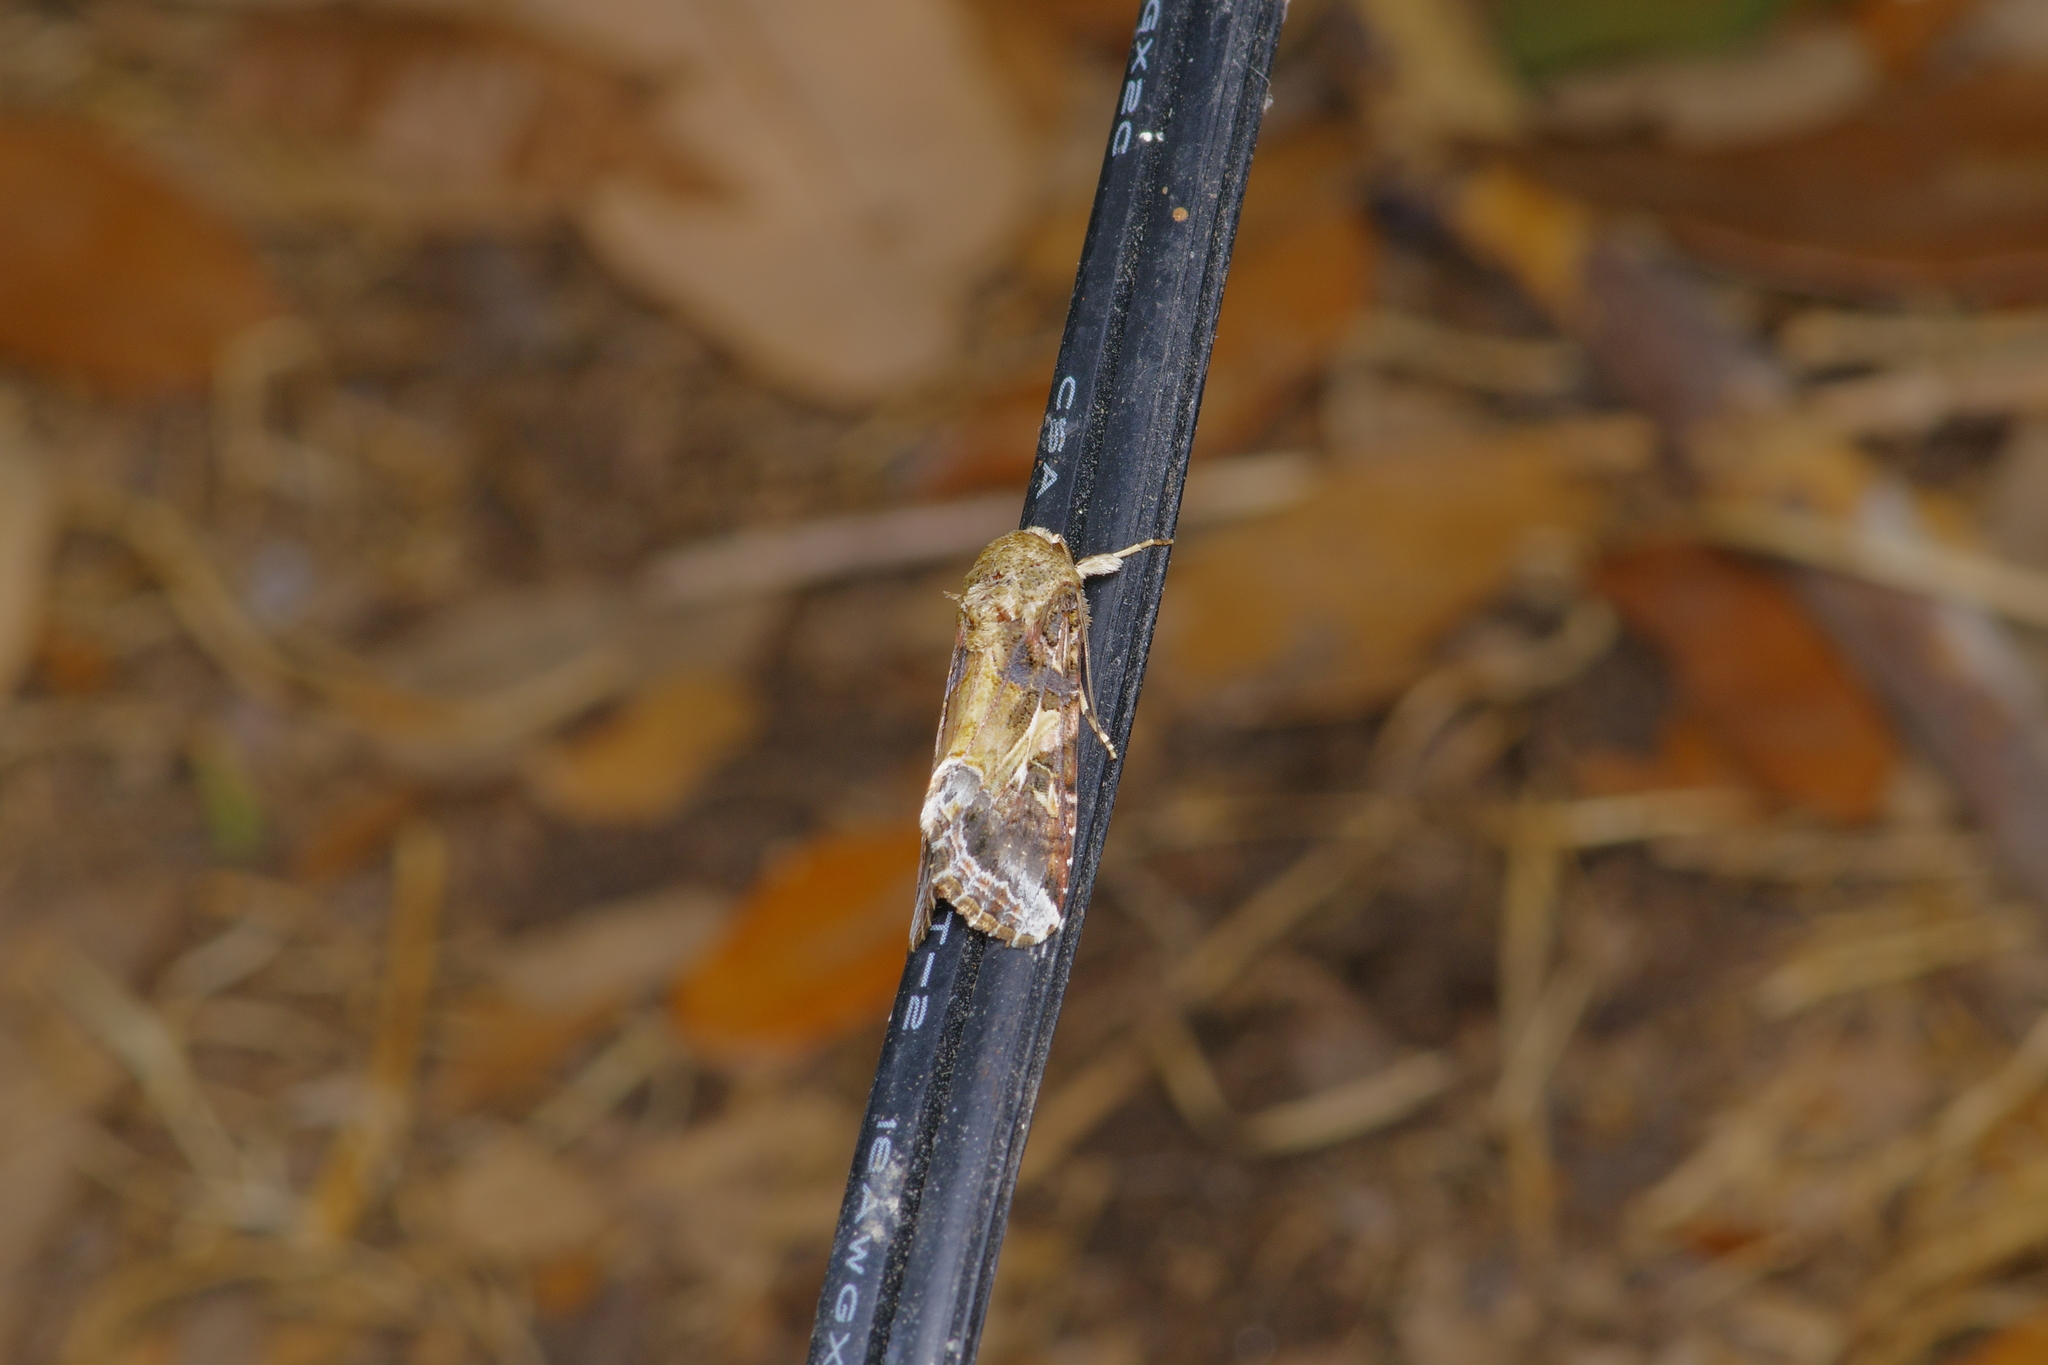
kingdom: Animalia
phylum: Arthropoda
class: Insecta
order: Lepidoptera
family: Noctuidae
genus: Spodoptera
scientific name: Spodoptera latifascia
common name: Velvet armyworm moth
